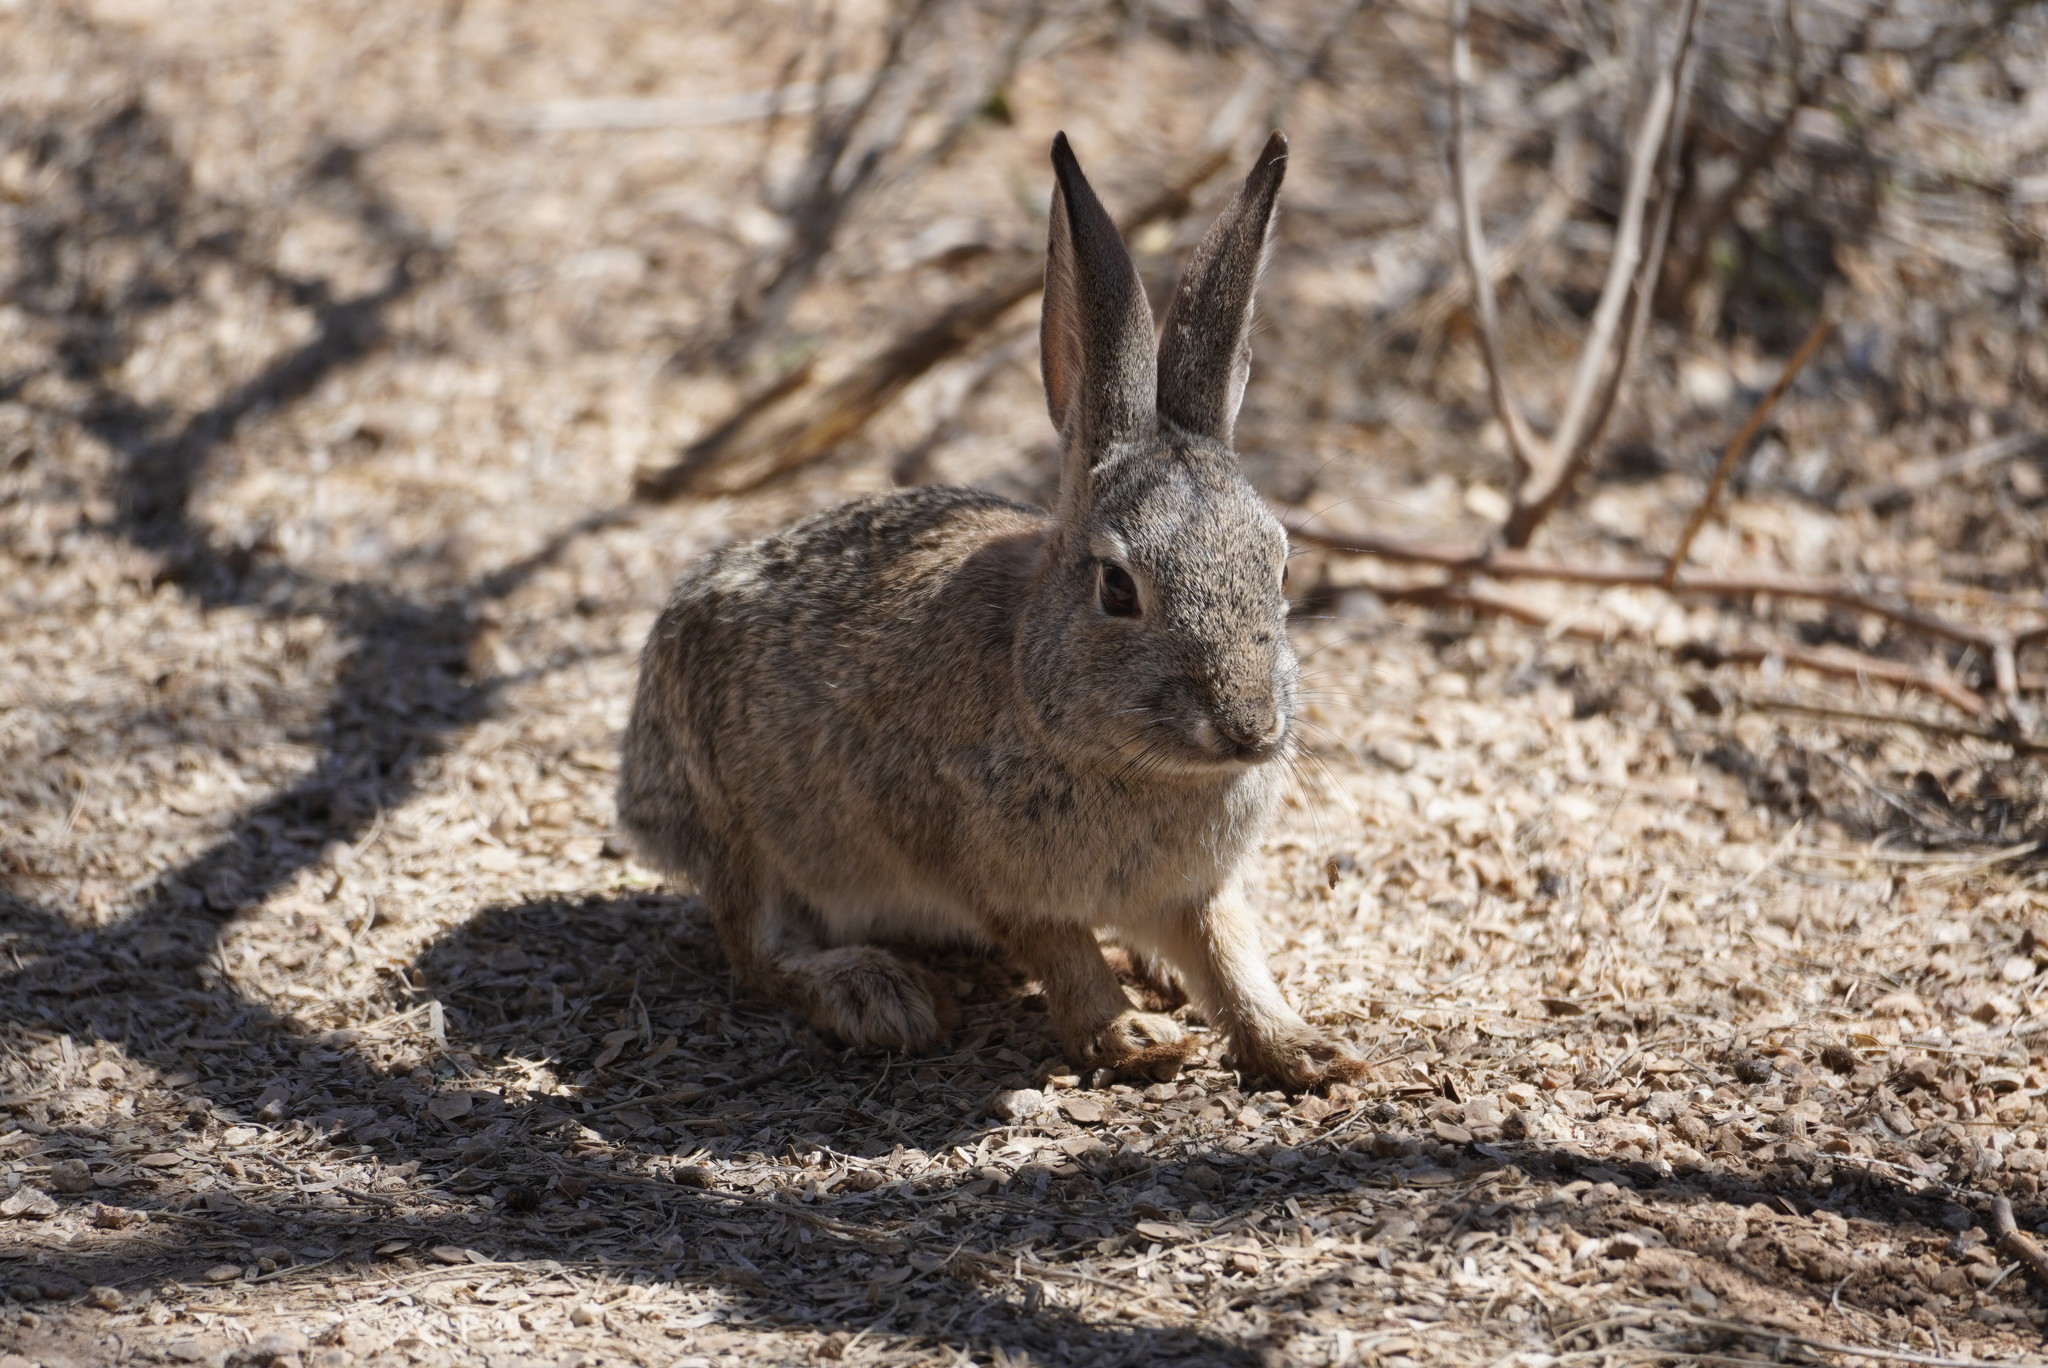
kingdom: Animalia
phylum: Chordata
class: Mammalia
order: Lagomorpha
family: Leporidae
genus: Sylvilagus
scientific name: Sylvilagus audubonii
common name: Desert cottontail
